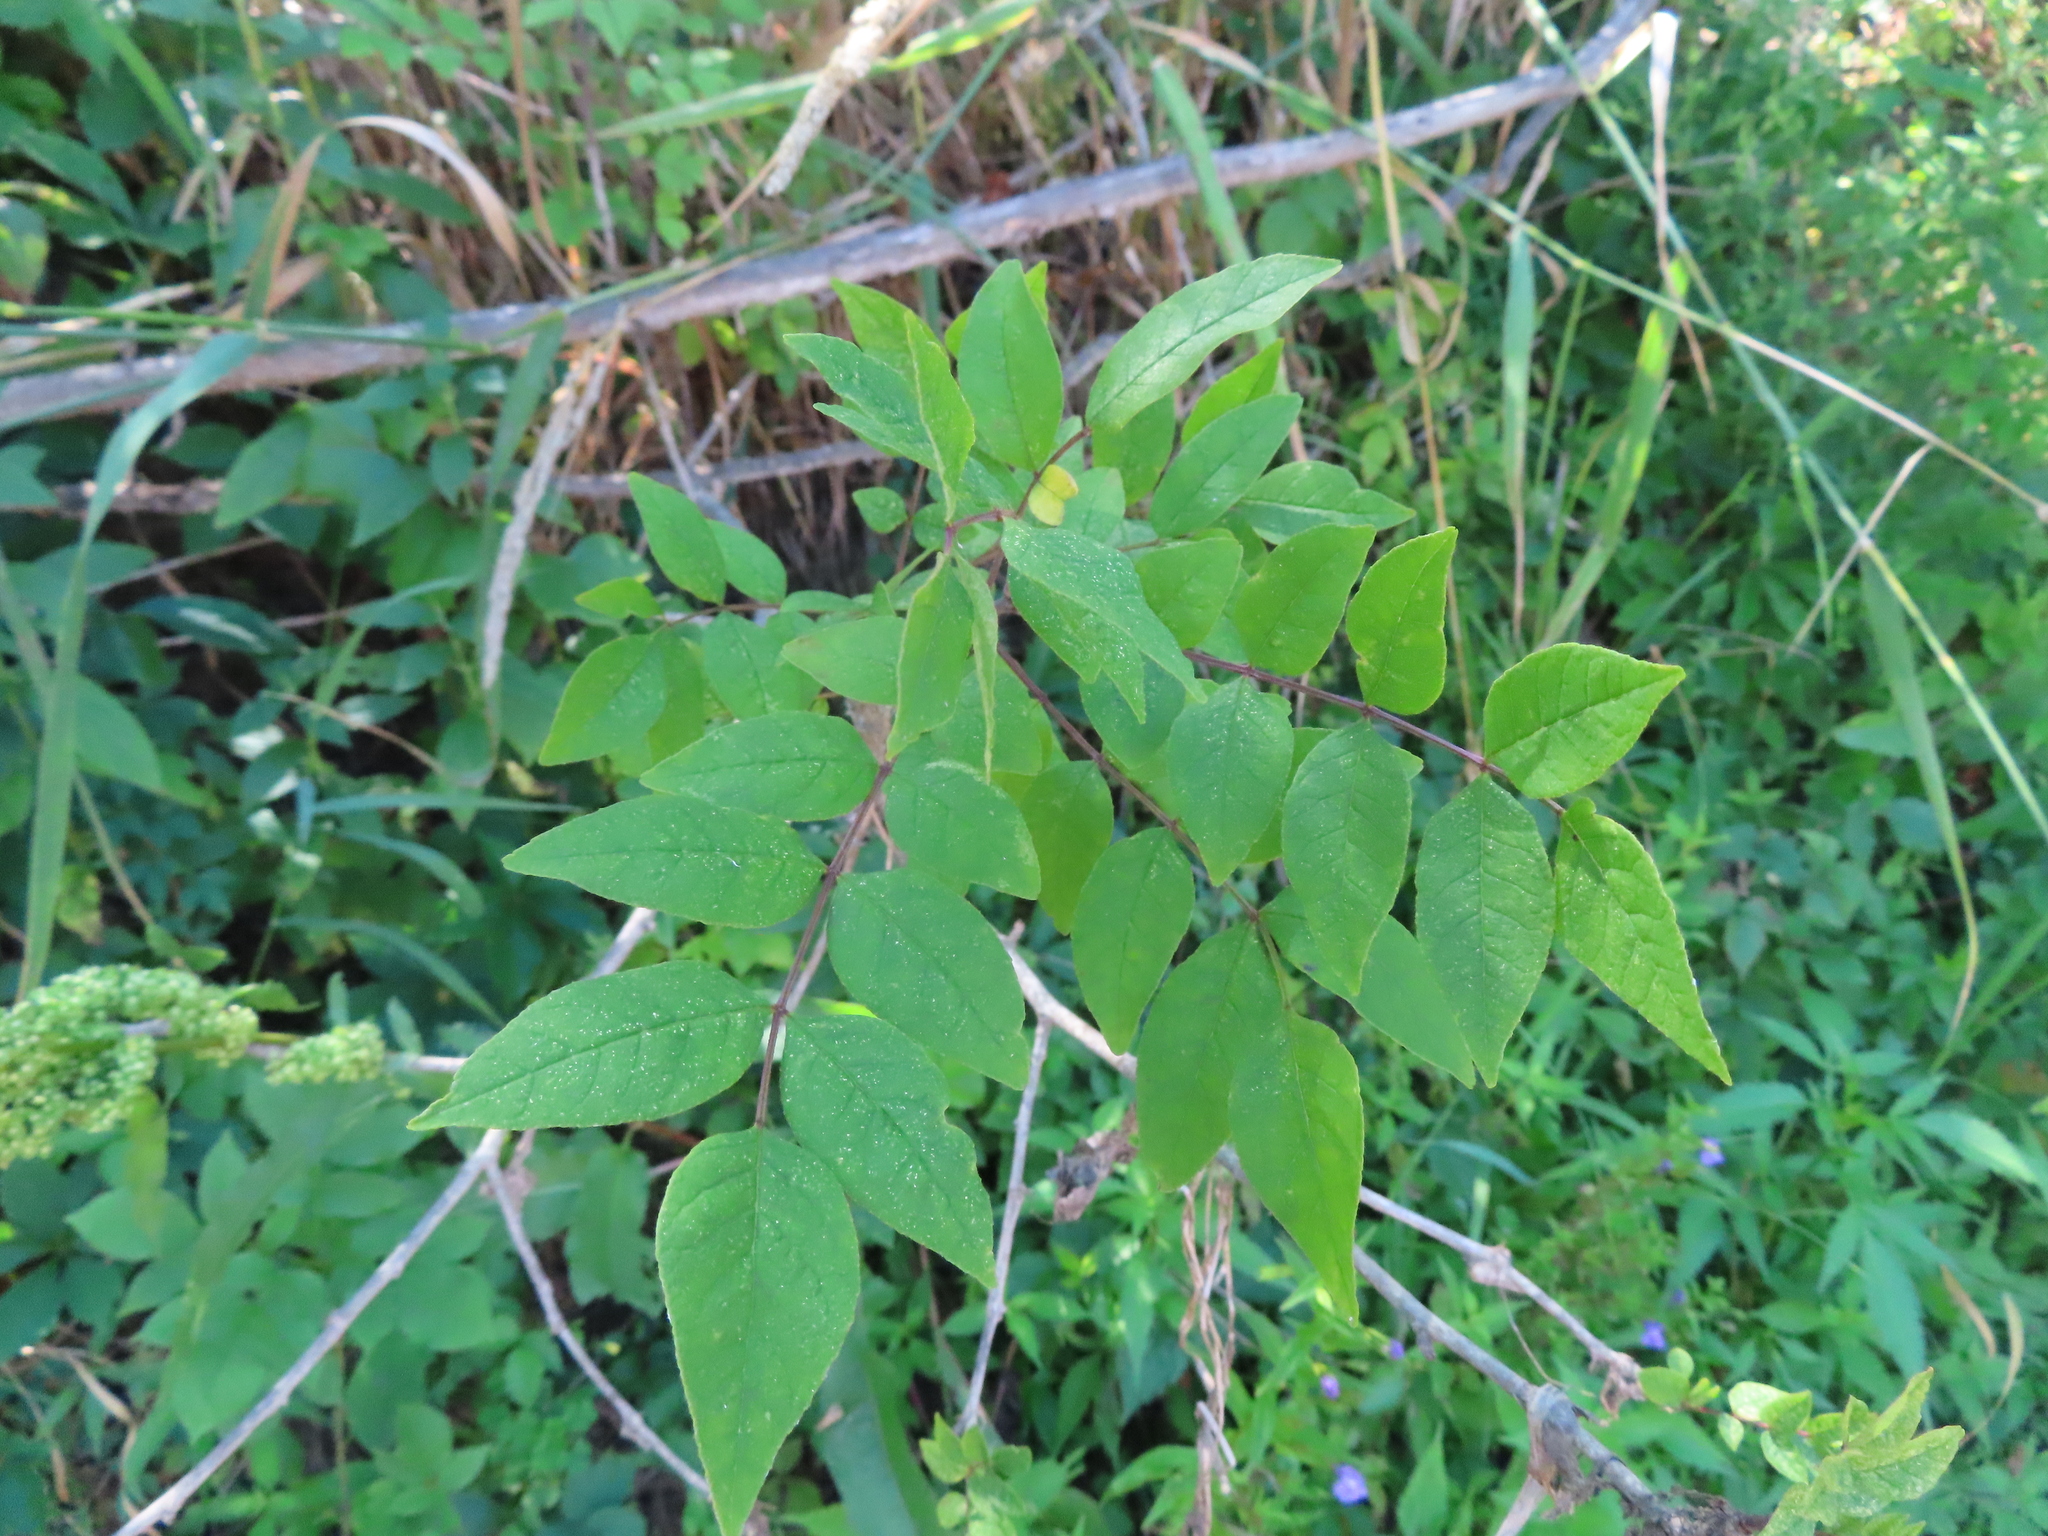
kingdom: Plantae
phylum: Tracheophyta
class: Magnoliopsida
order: Sapindales
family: Rutaceae
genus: Zanthoxylum
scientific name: Zanthoxylum americanum
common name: Northern prickly-ash
